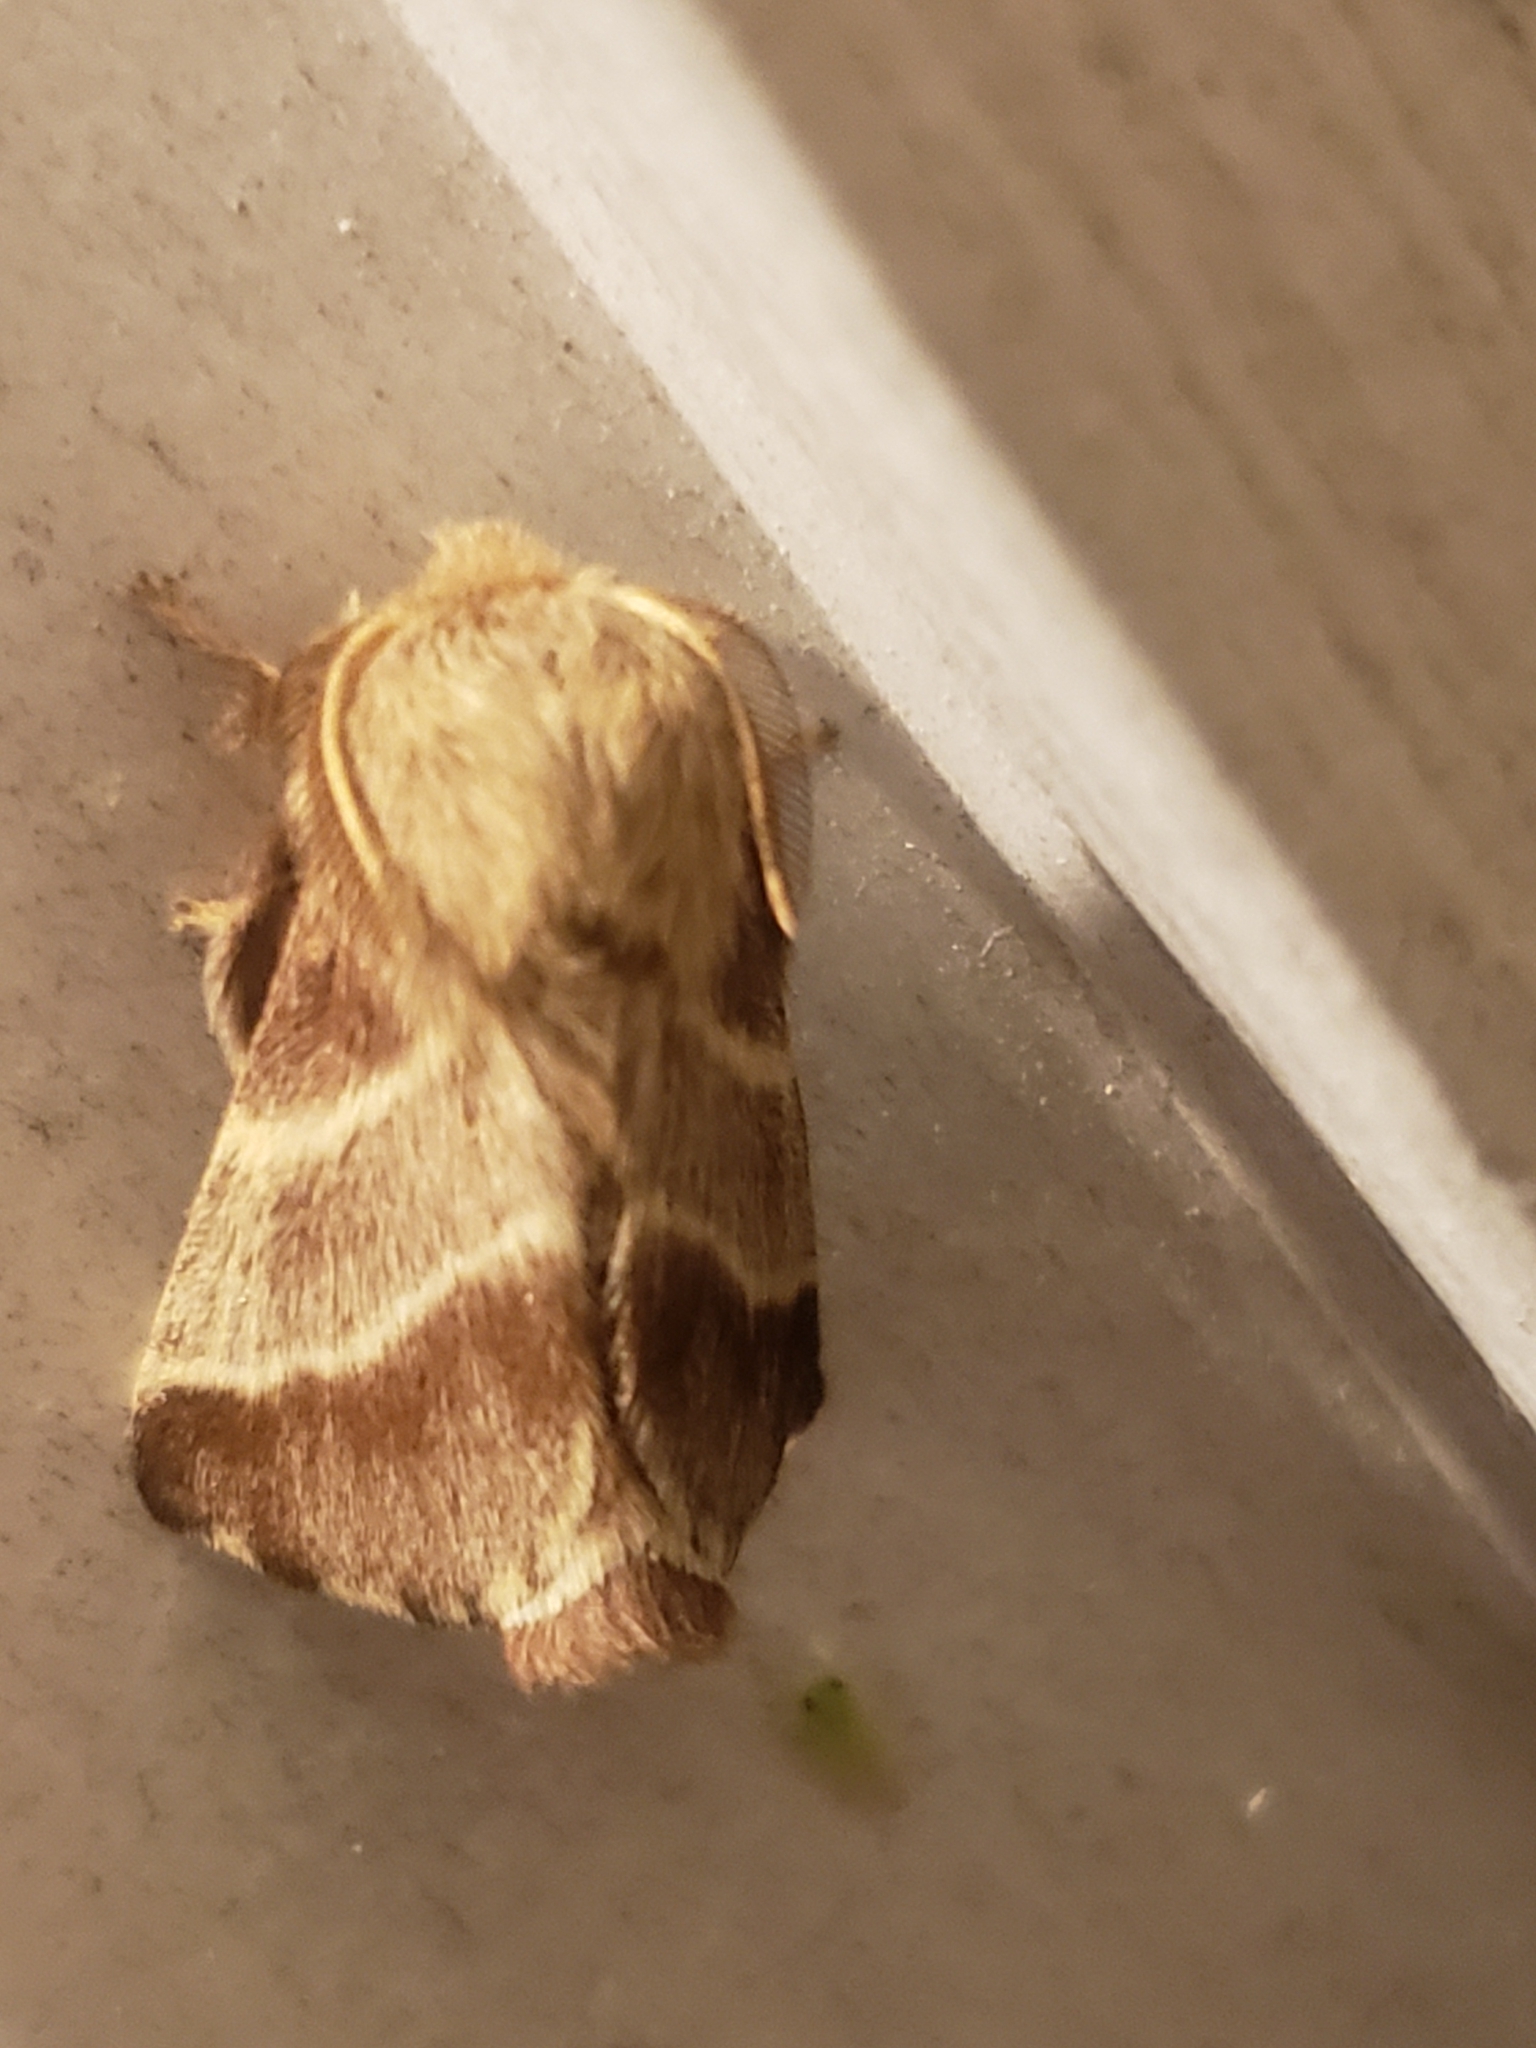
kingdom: Animalia
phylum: Arthropoda
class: Insecta
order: Lepidoptera
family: Lasiocampidae
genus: Malacosoma
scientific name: Malacosoma americana
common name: Eastern tent caterpillar moth
